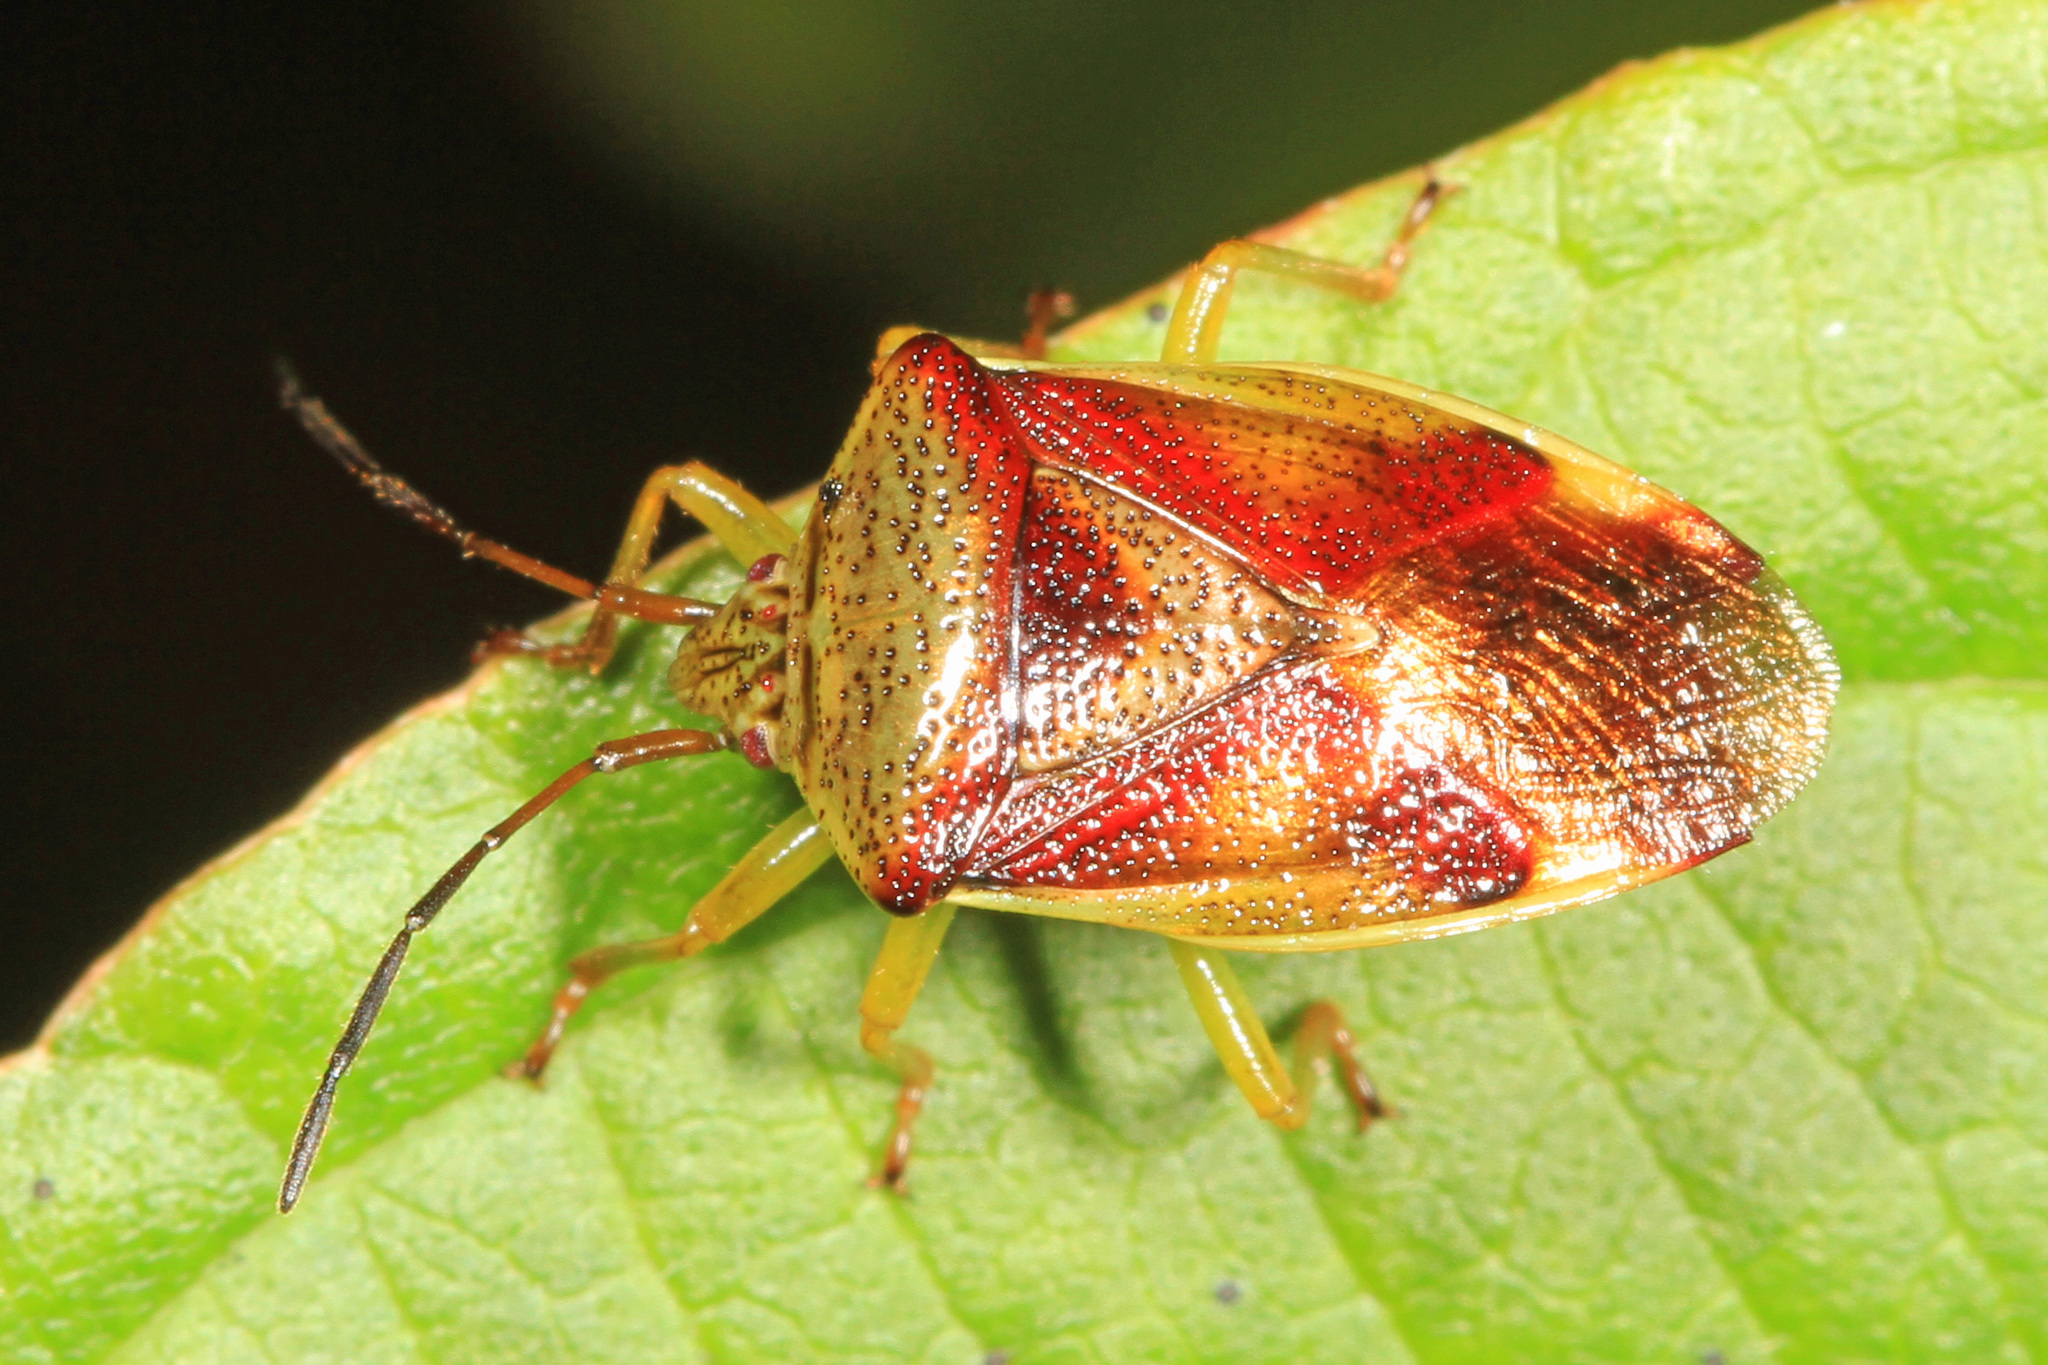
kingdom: Animalia
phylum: Arthropoda
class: Insecta
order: Hemiptera
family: Acanthosomatidae
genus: Elasmostethus
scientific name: Elasmostethus cruciatus
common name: Red-cross shield bug
